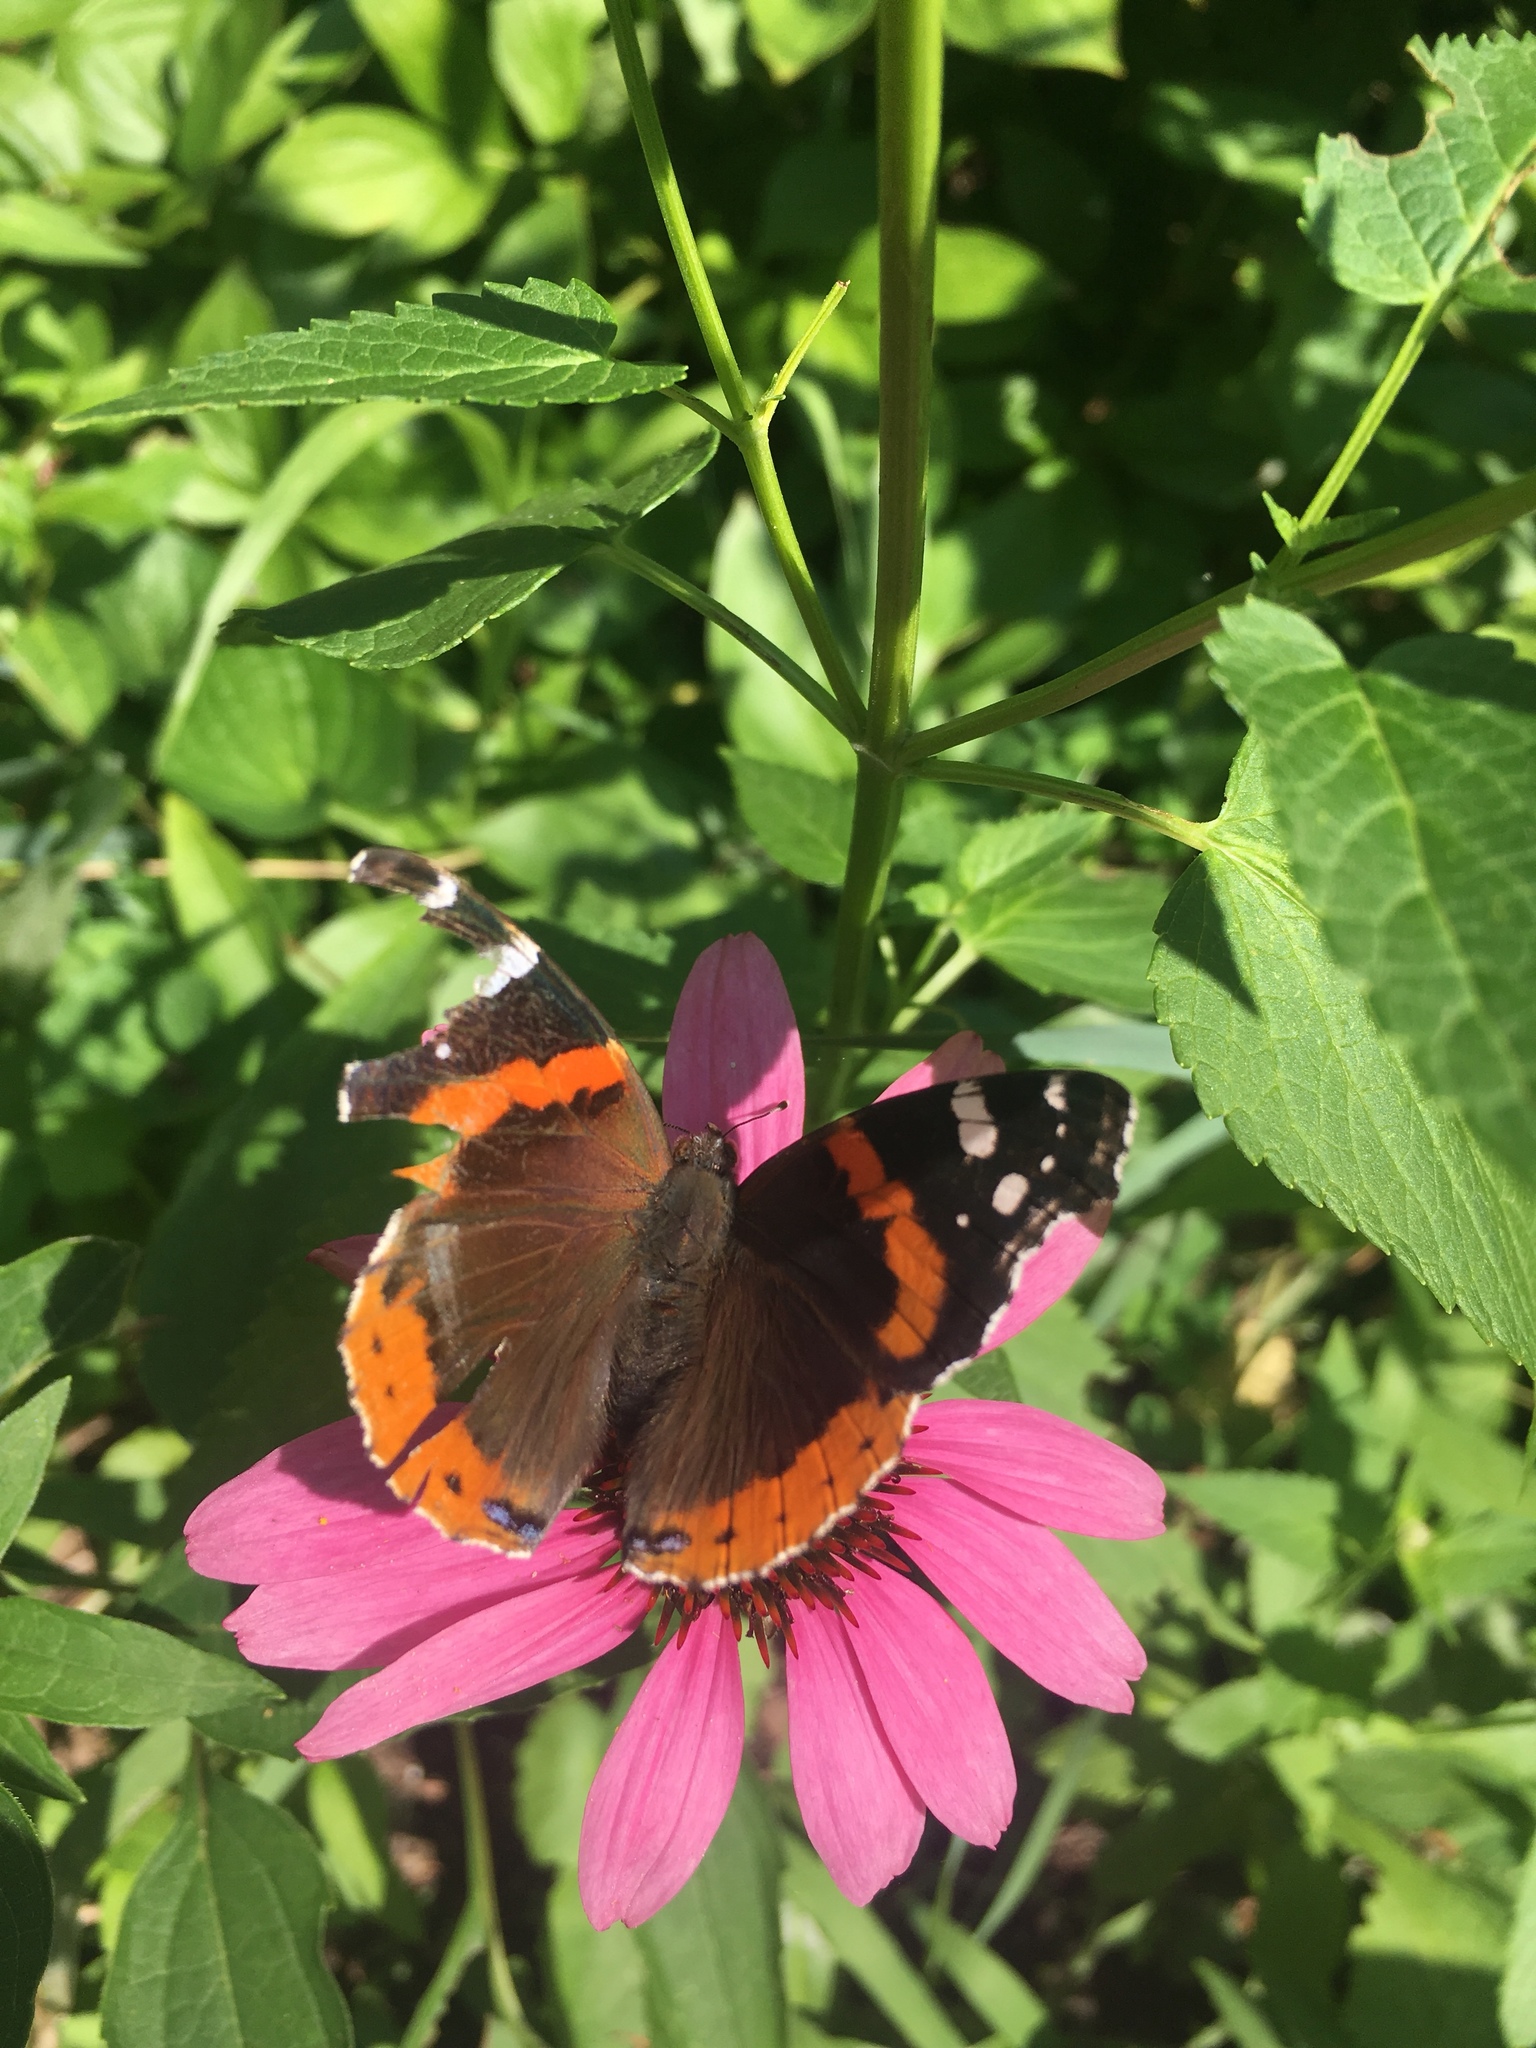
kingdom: Animalia
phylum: Arthropoda
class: Insecta
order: Lepidoptera
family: Nymphalidae
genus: Vanessa
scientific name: Vanessa atalanta
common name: Red admiral
